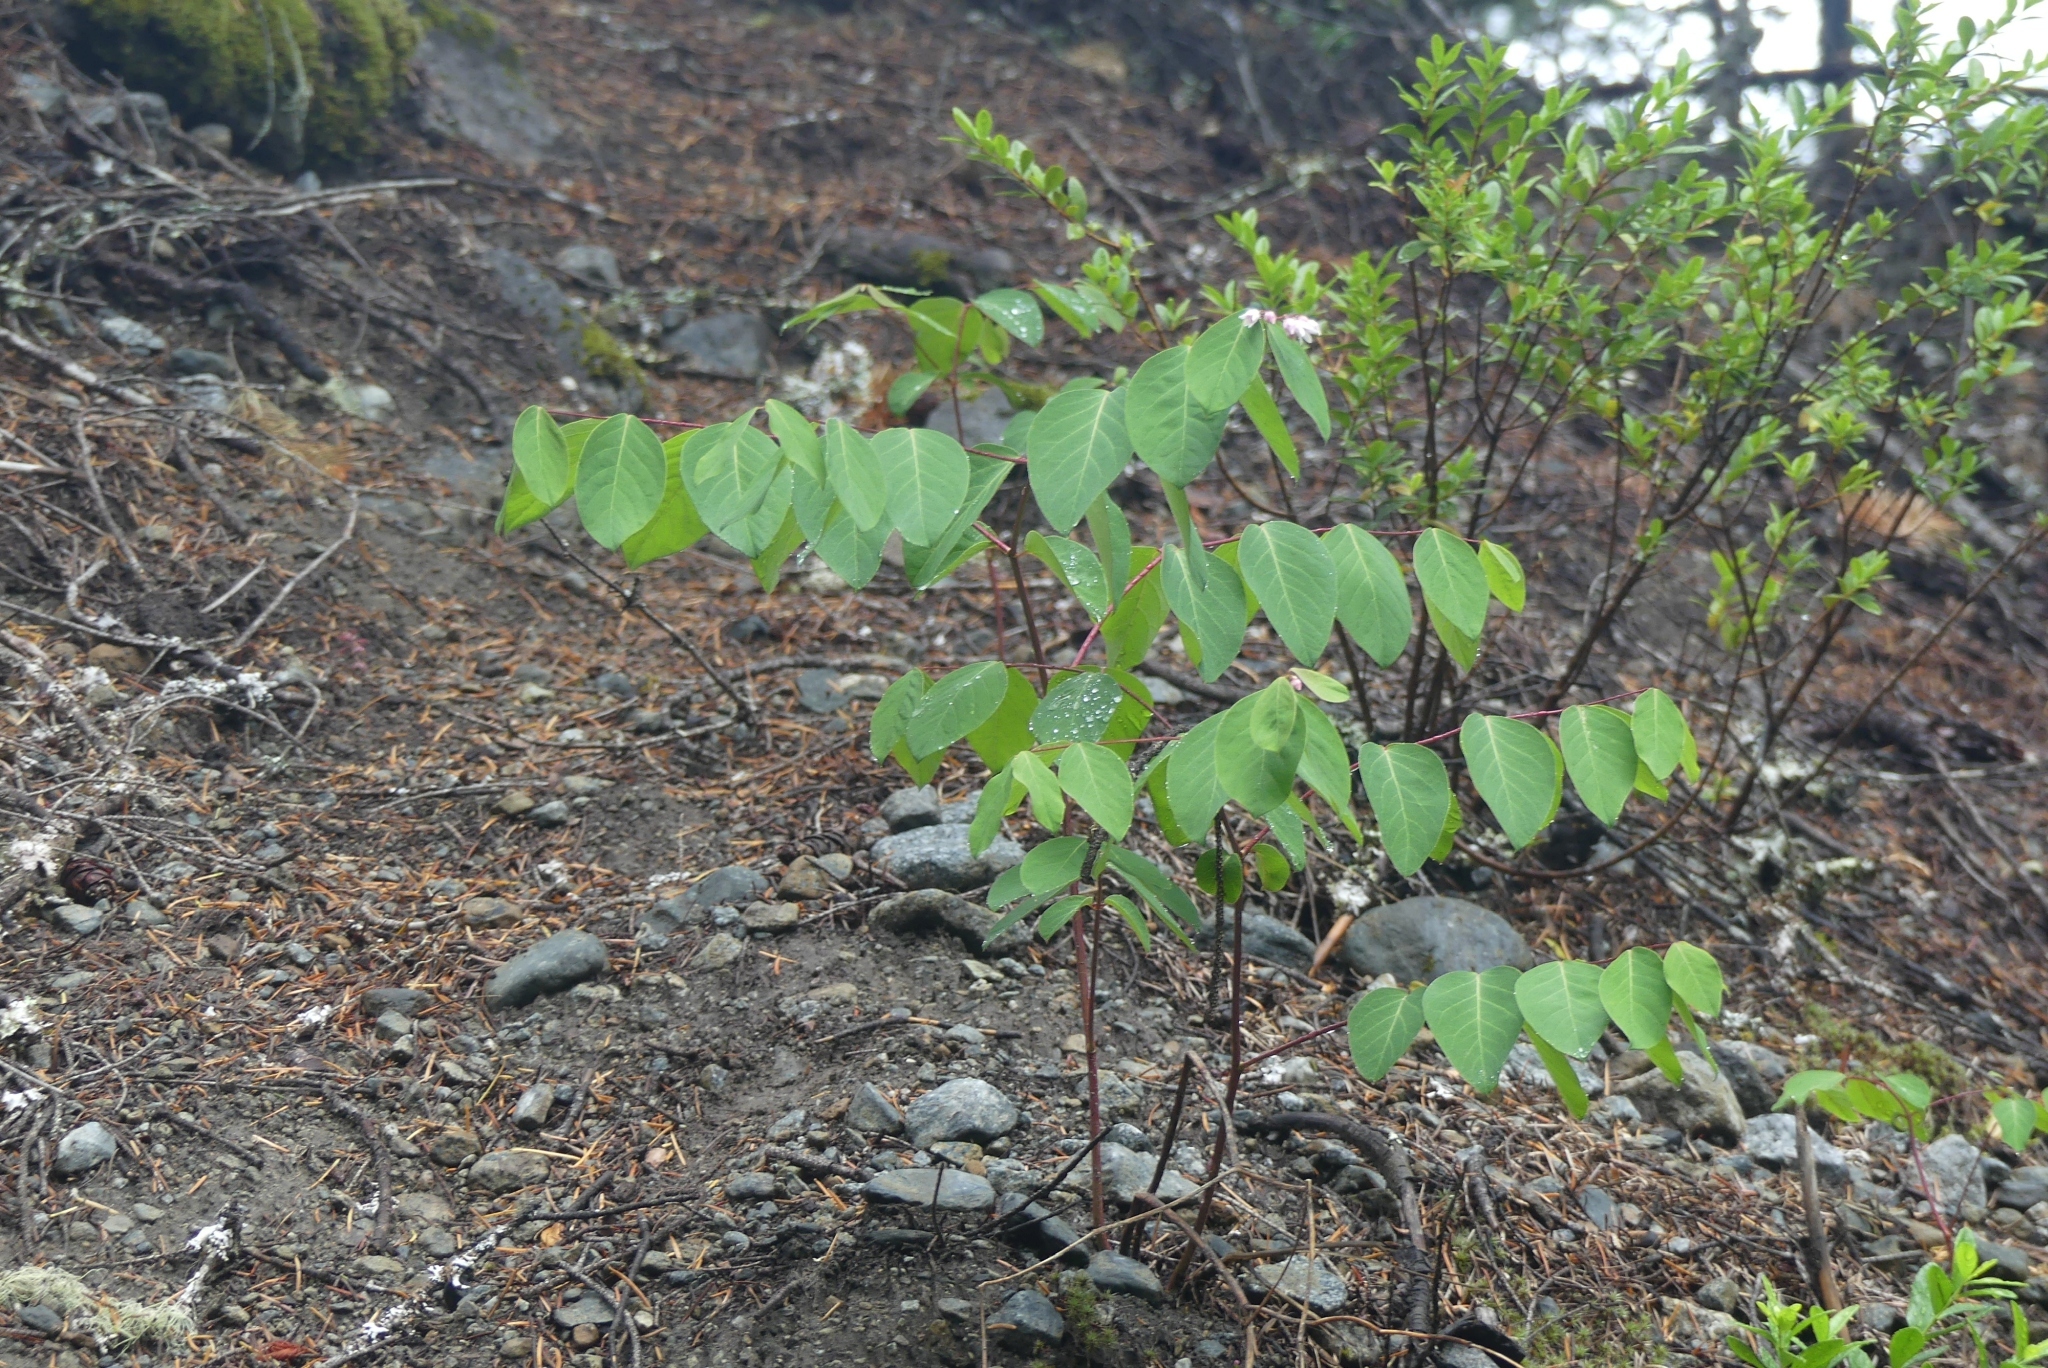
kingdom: Plantae
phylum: Tracheophyta
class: Magnoliopsida
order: Gentianales
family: Apocynaceae
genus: Apocynum
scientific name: Apocynum androsaemifolium
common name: Spreading dogbane
